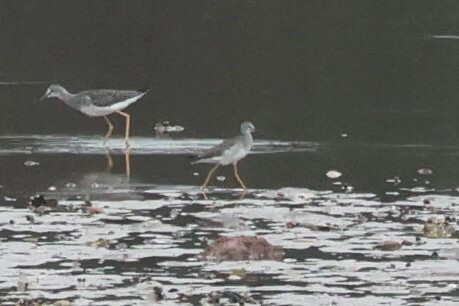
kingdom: Animalia
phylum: Chordata
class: Aves
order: Charadriiformes
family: Scolopacidae
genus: Tringa
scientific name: Tringa flavipes
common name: Lesser yellowlegs
